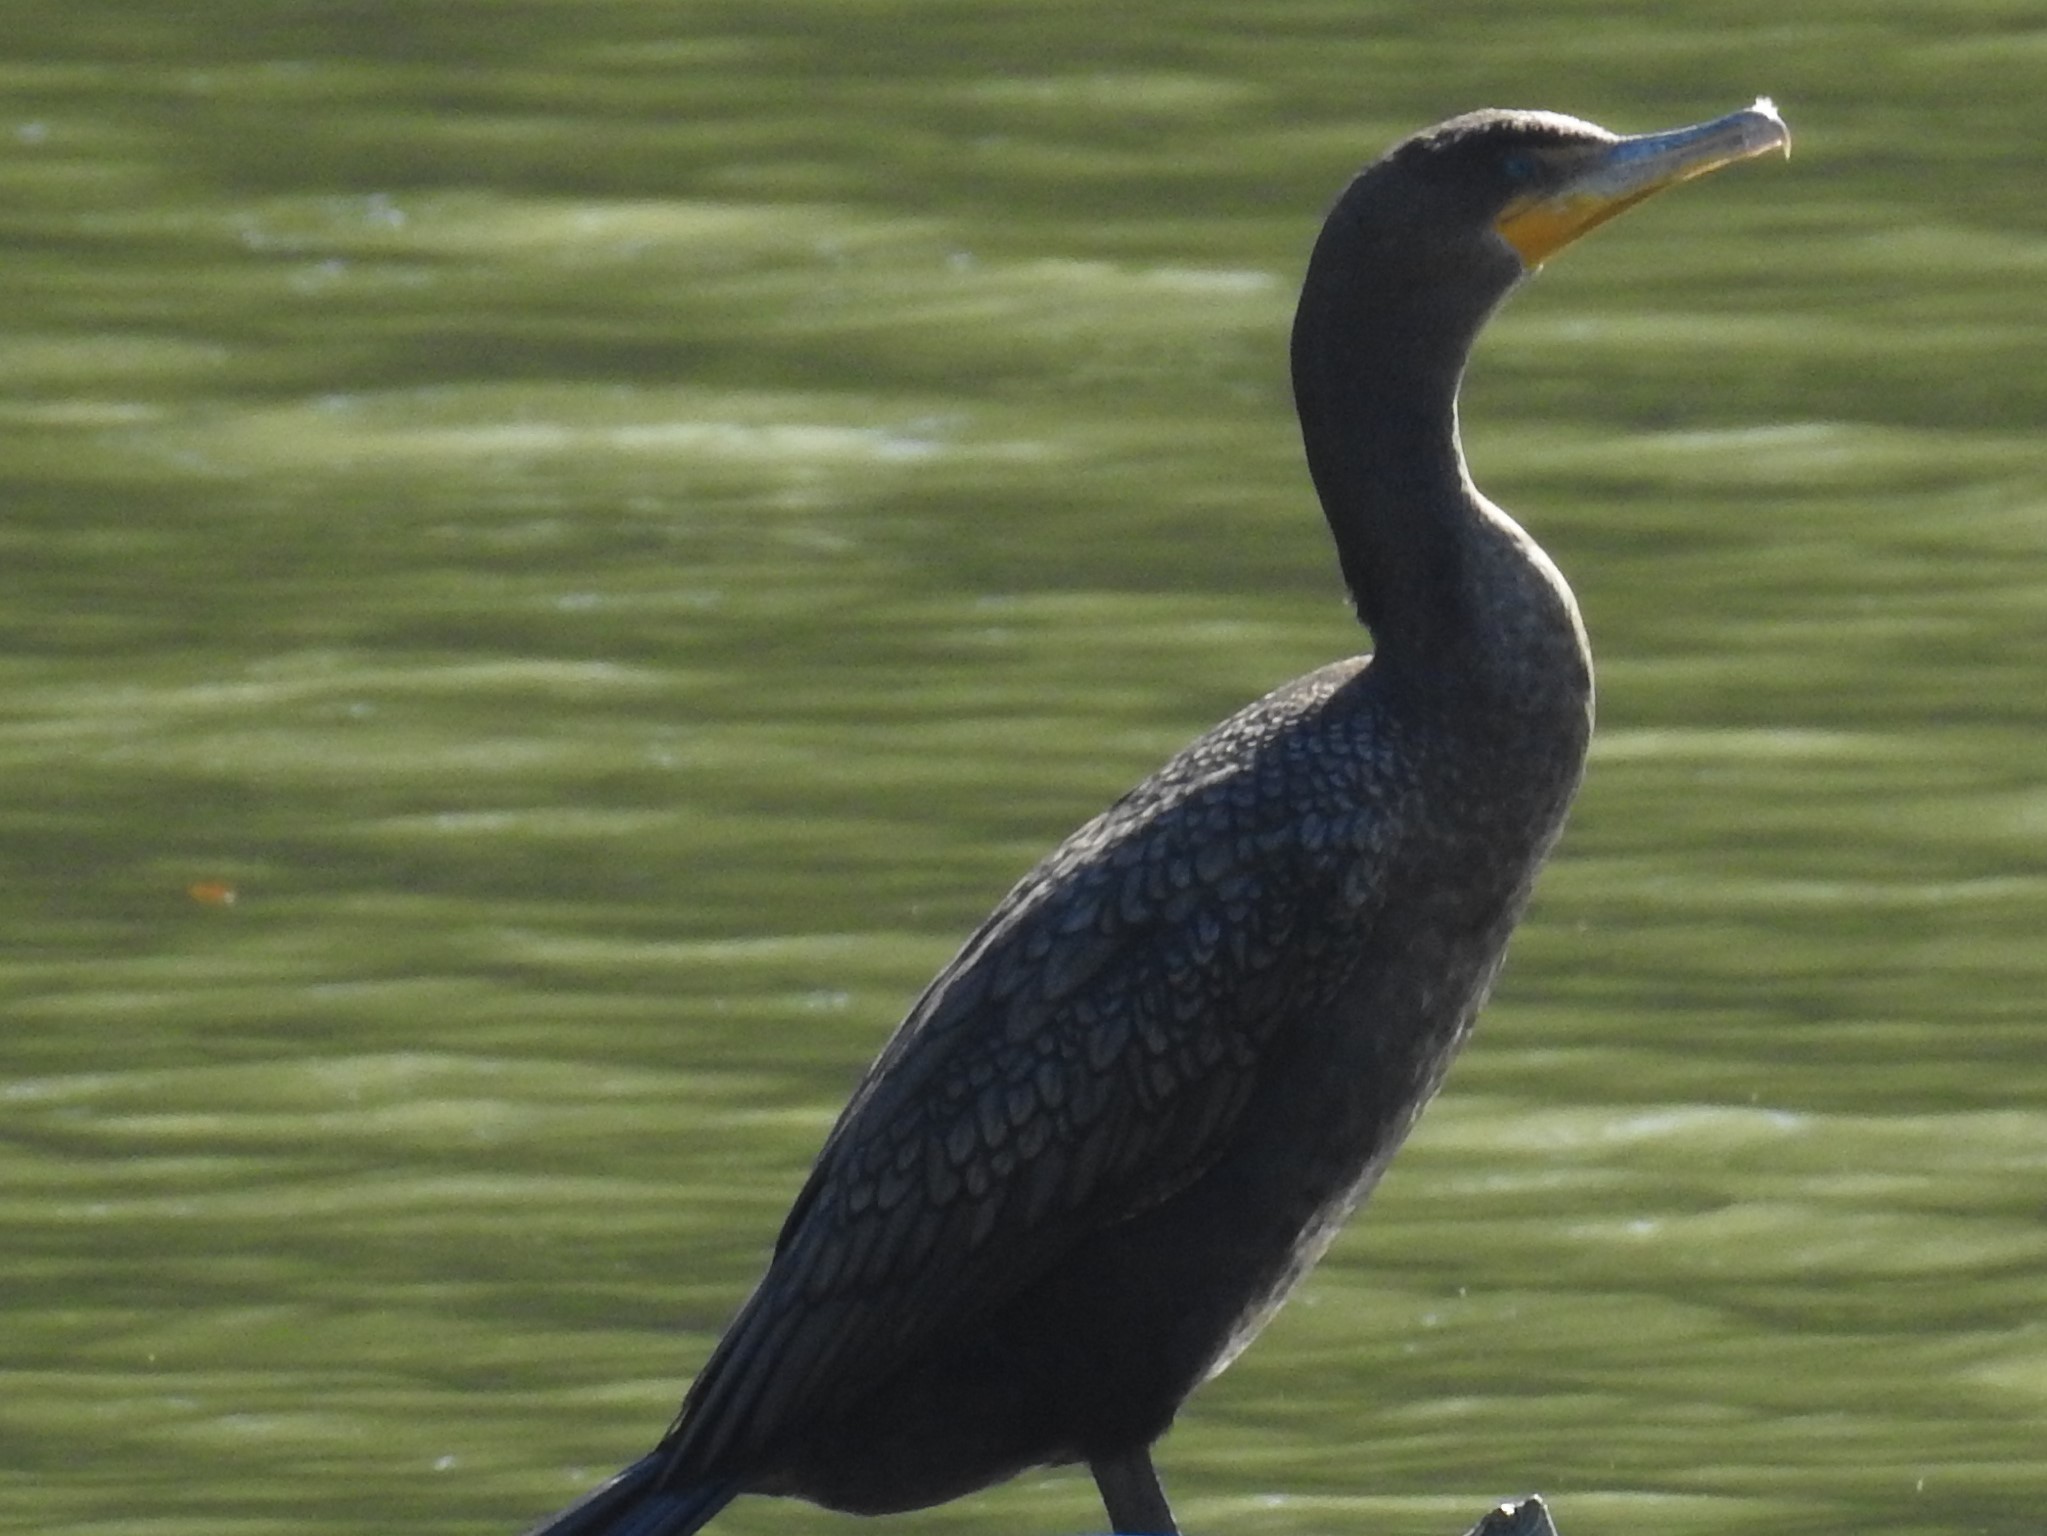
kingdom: Animalia
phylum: Chordata
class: Aves
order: Suliformes
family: Phalacrocoracidae
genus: Phalacrocorax
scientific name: Phalacrocorax auritus
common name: Double-crested cormorant
